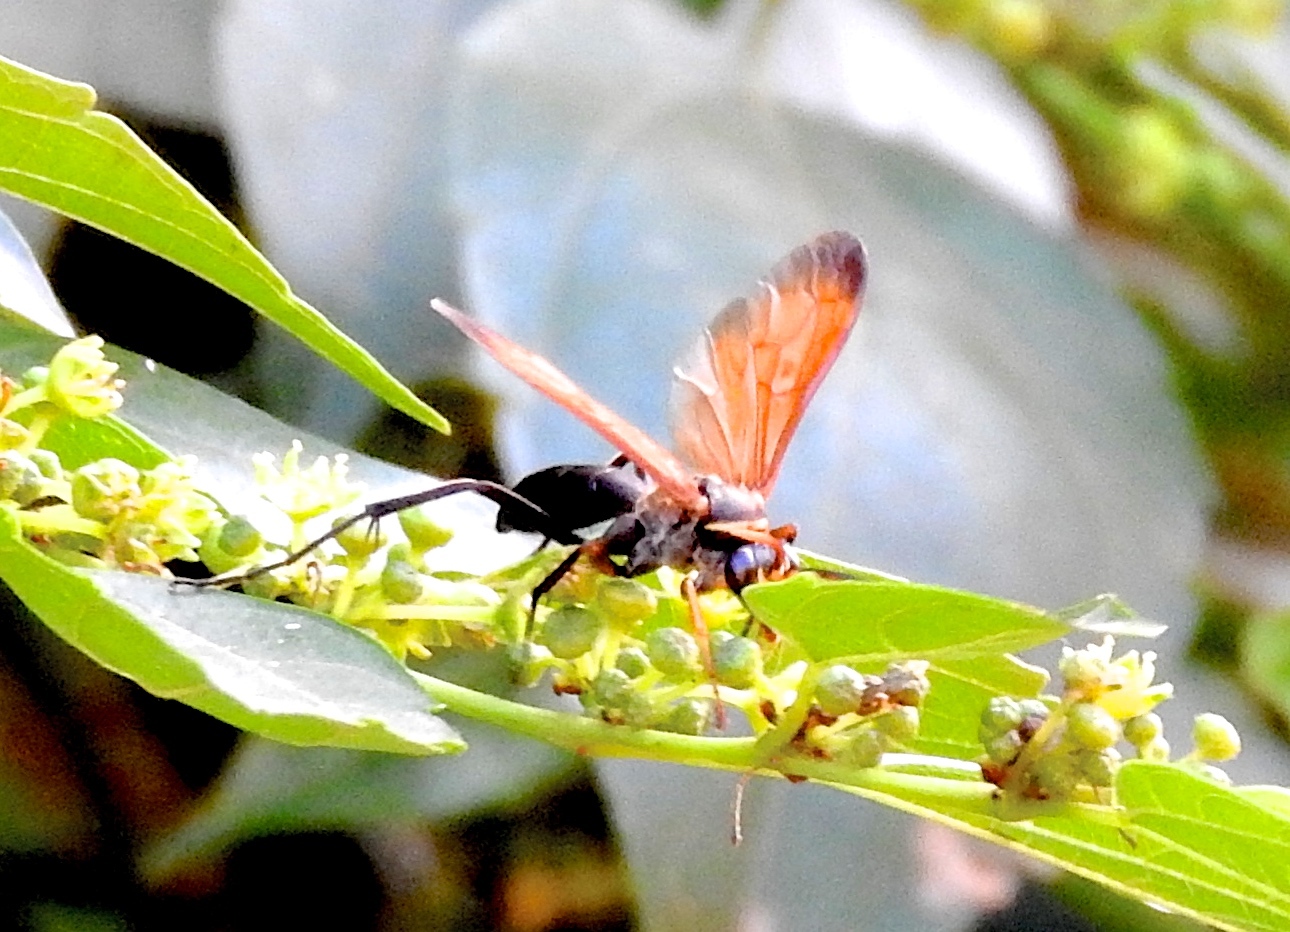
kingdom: Animalia
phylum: Arthropoda
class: Insecta
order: Hymenoptera
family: Pompilidae
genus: Hemipepsis
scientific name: Hemipepsis
